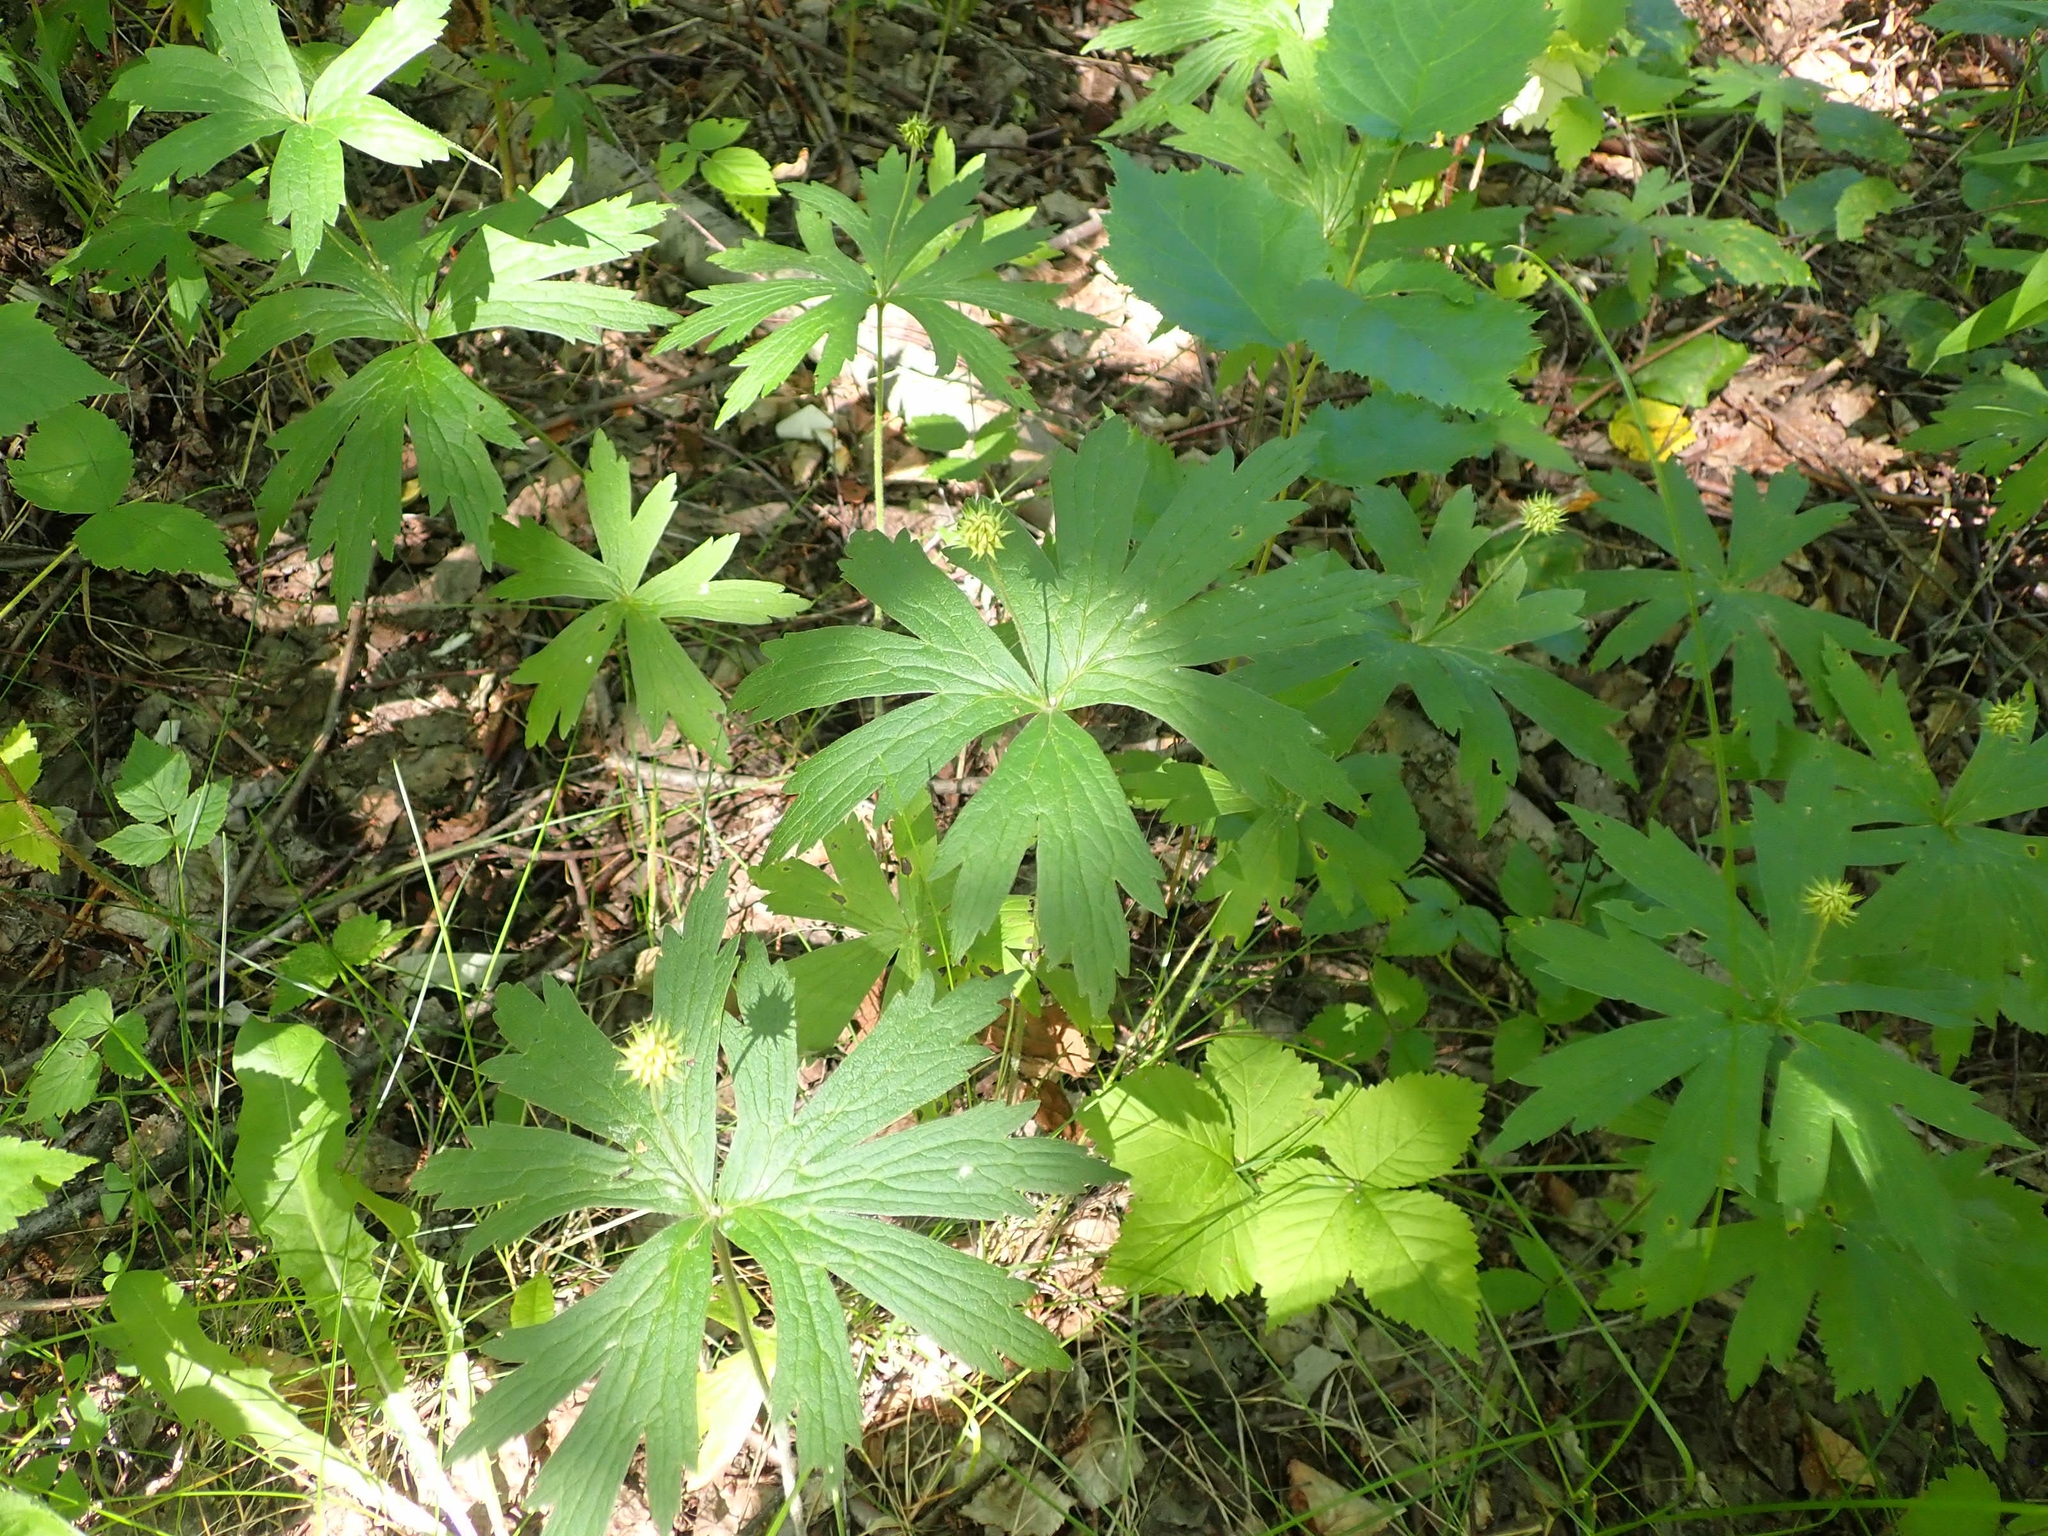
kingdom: Plantae
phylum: Tracheophyta
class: Magnoliopsida
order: Ranunculales
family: Ranunculaceae
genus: Anemonastrum
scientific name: Anemonastrum canadense
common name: Canada anemone
